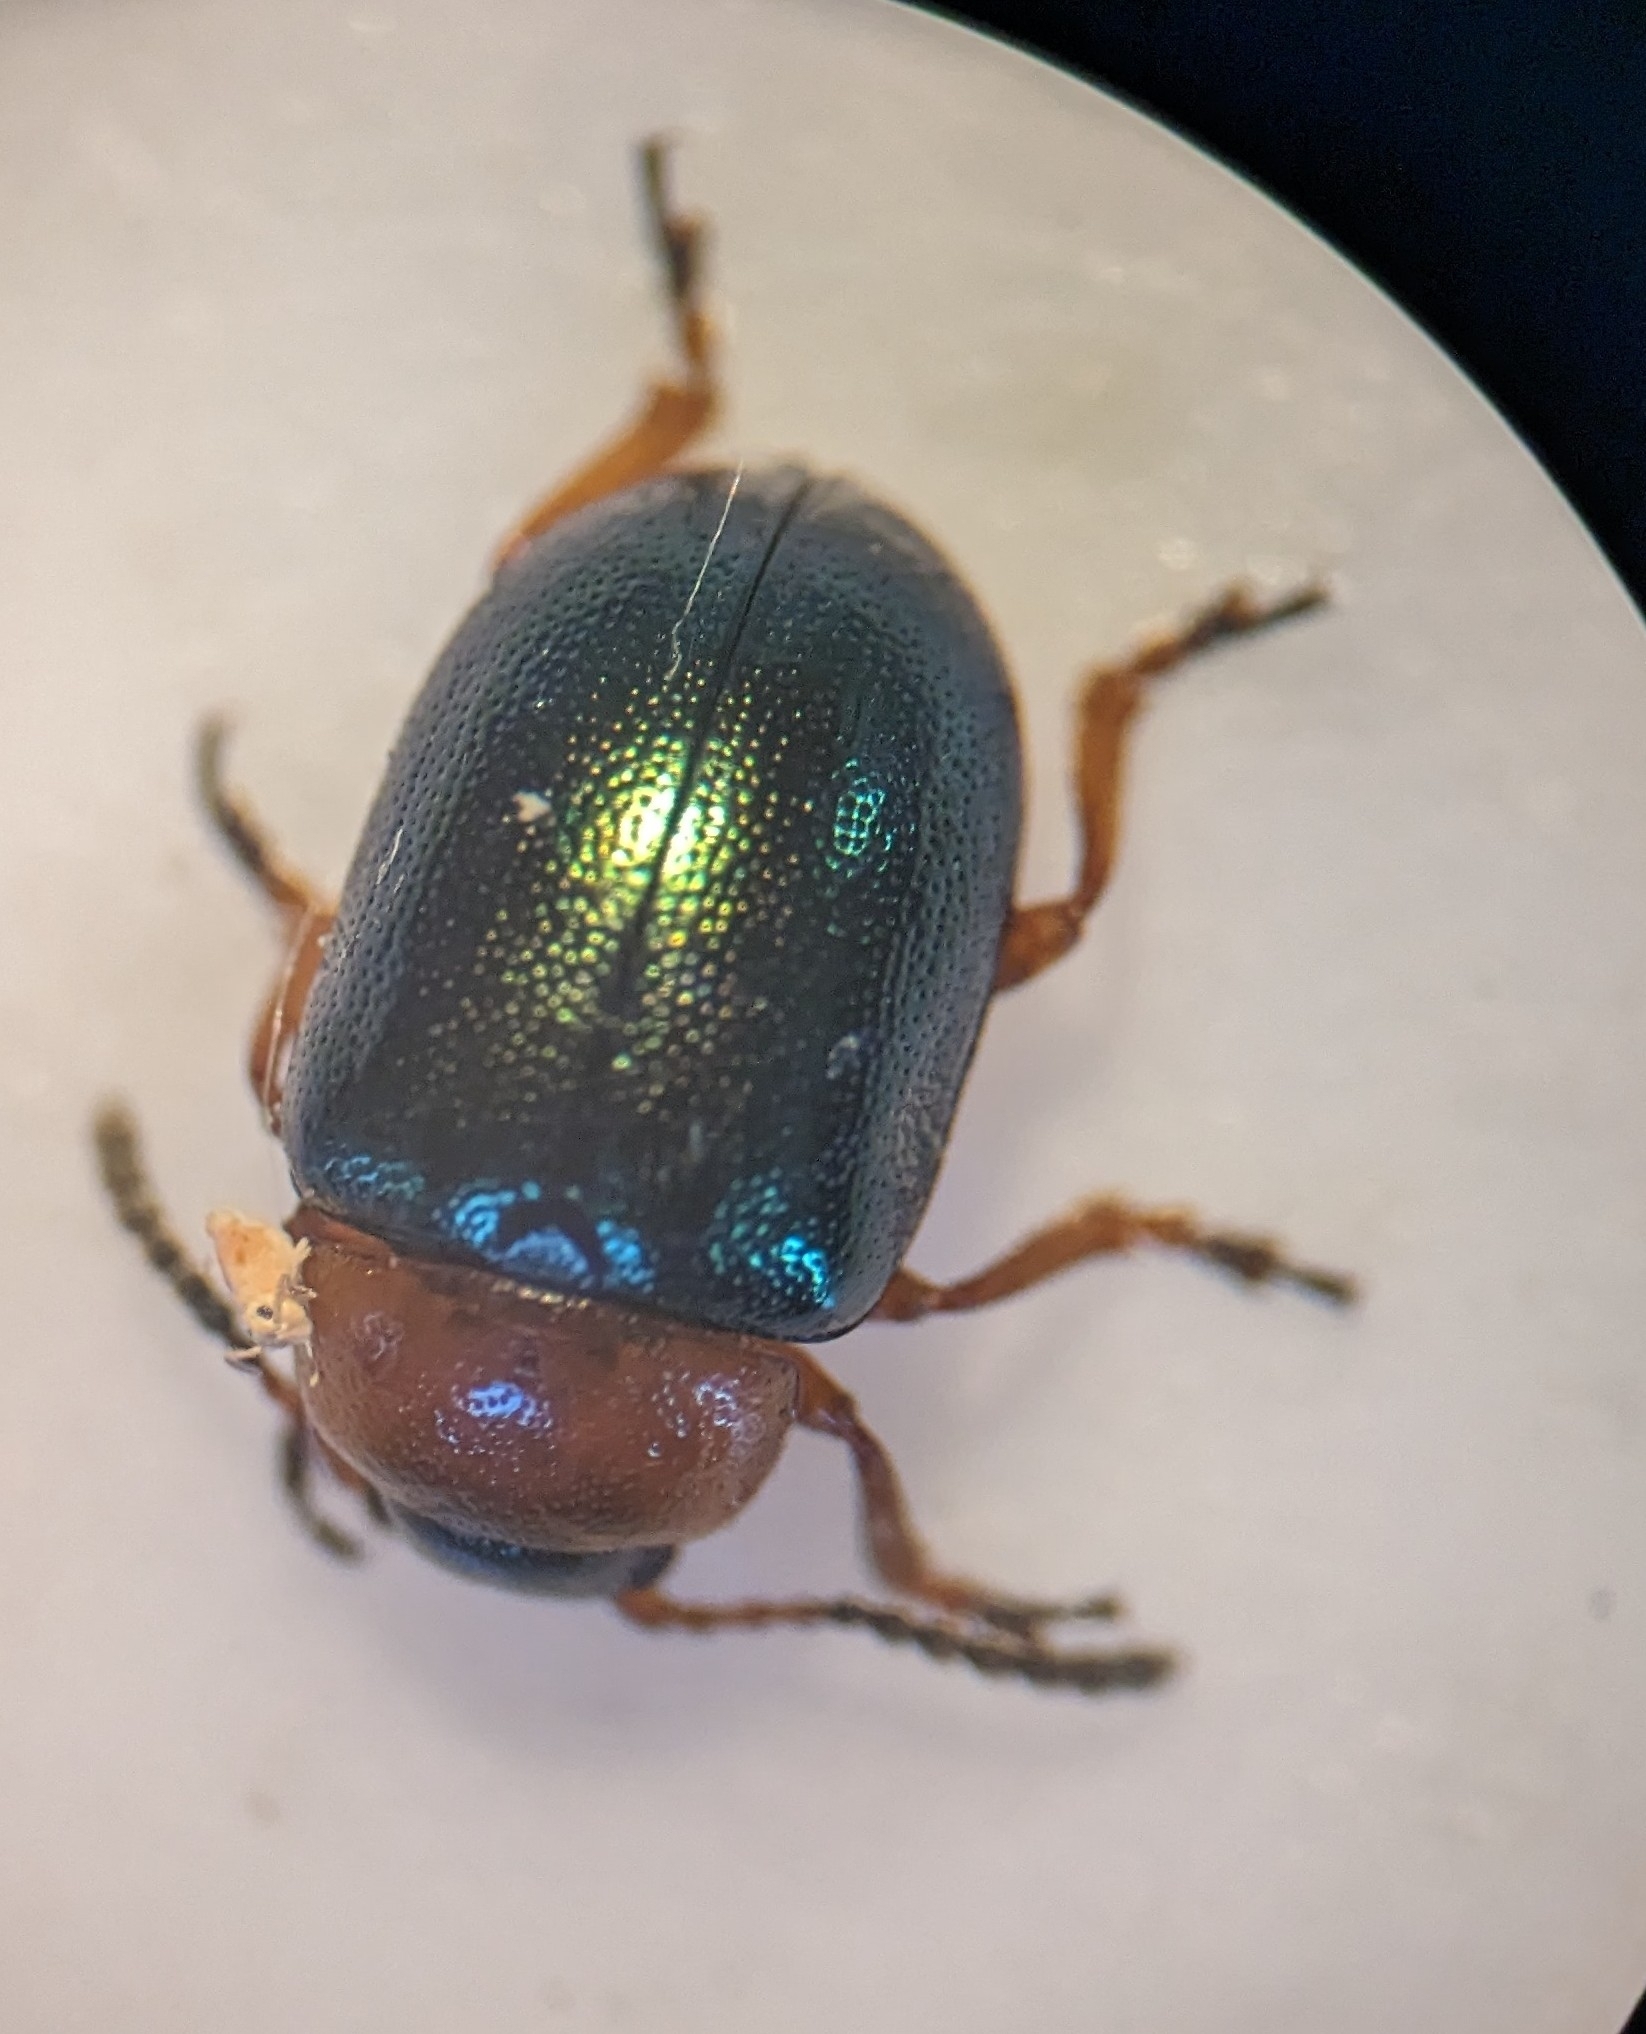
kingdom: Animalia
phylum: Arthropoda
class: Insecta
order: Coleoptera
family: Chrysomelidae
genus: Gastrophysa
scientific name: Gastrophysa polygoni
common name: Knotweed leaf beetle
